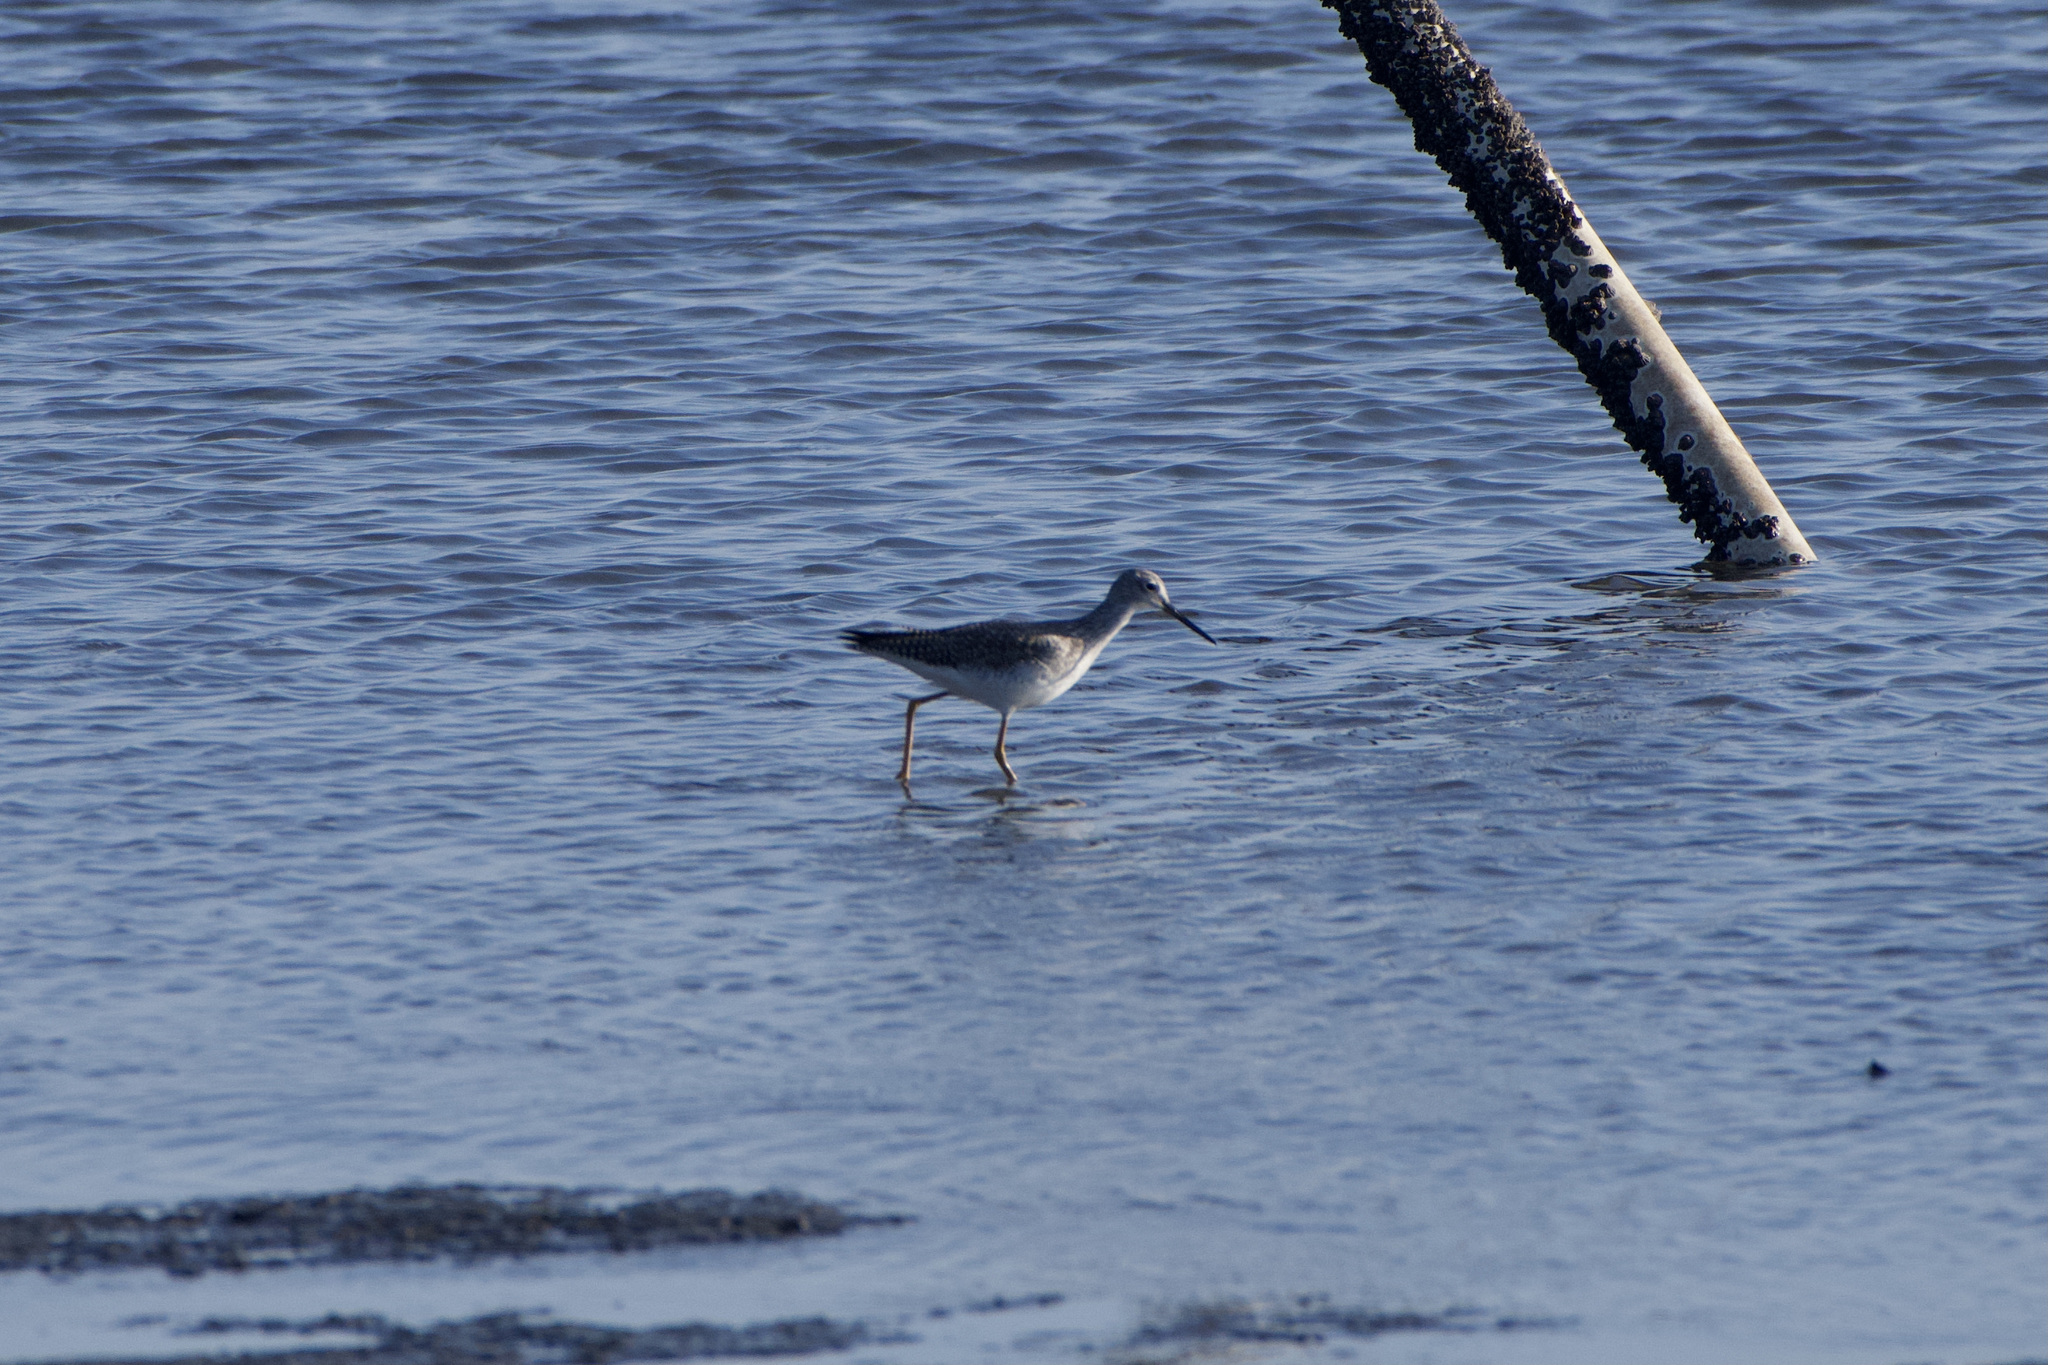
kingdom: Animalia
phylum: Chordata
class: Aves
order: Charadriiformes
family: Scolopacidae
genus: Tringa
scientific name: Tringa melanoleuca
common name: Greater yellowlegs
